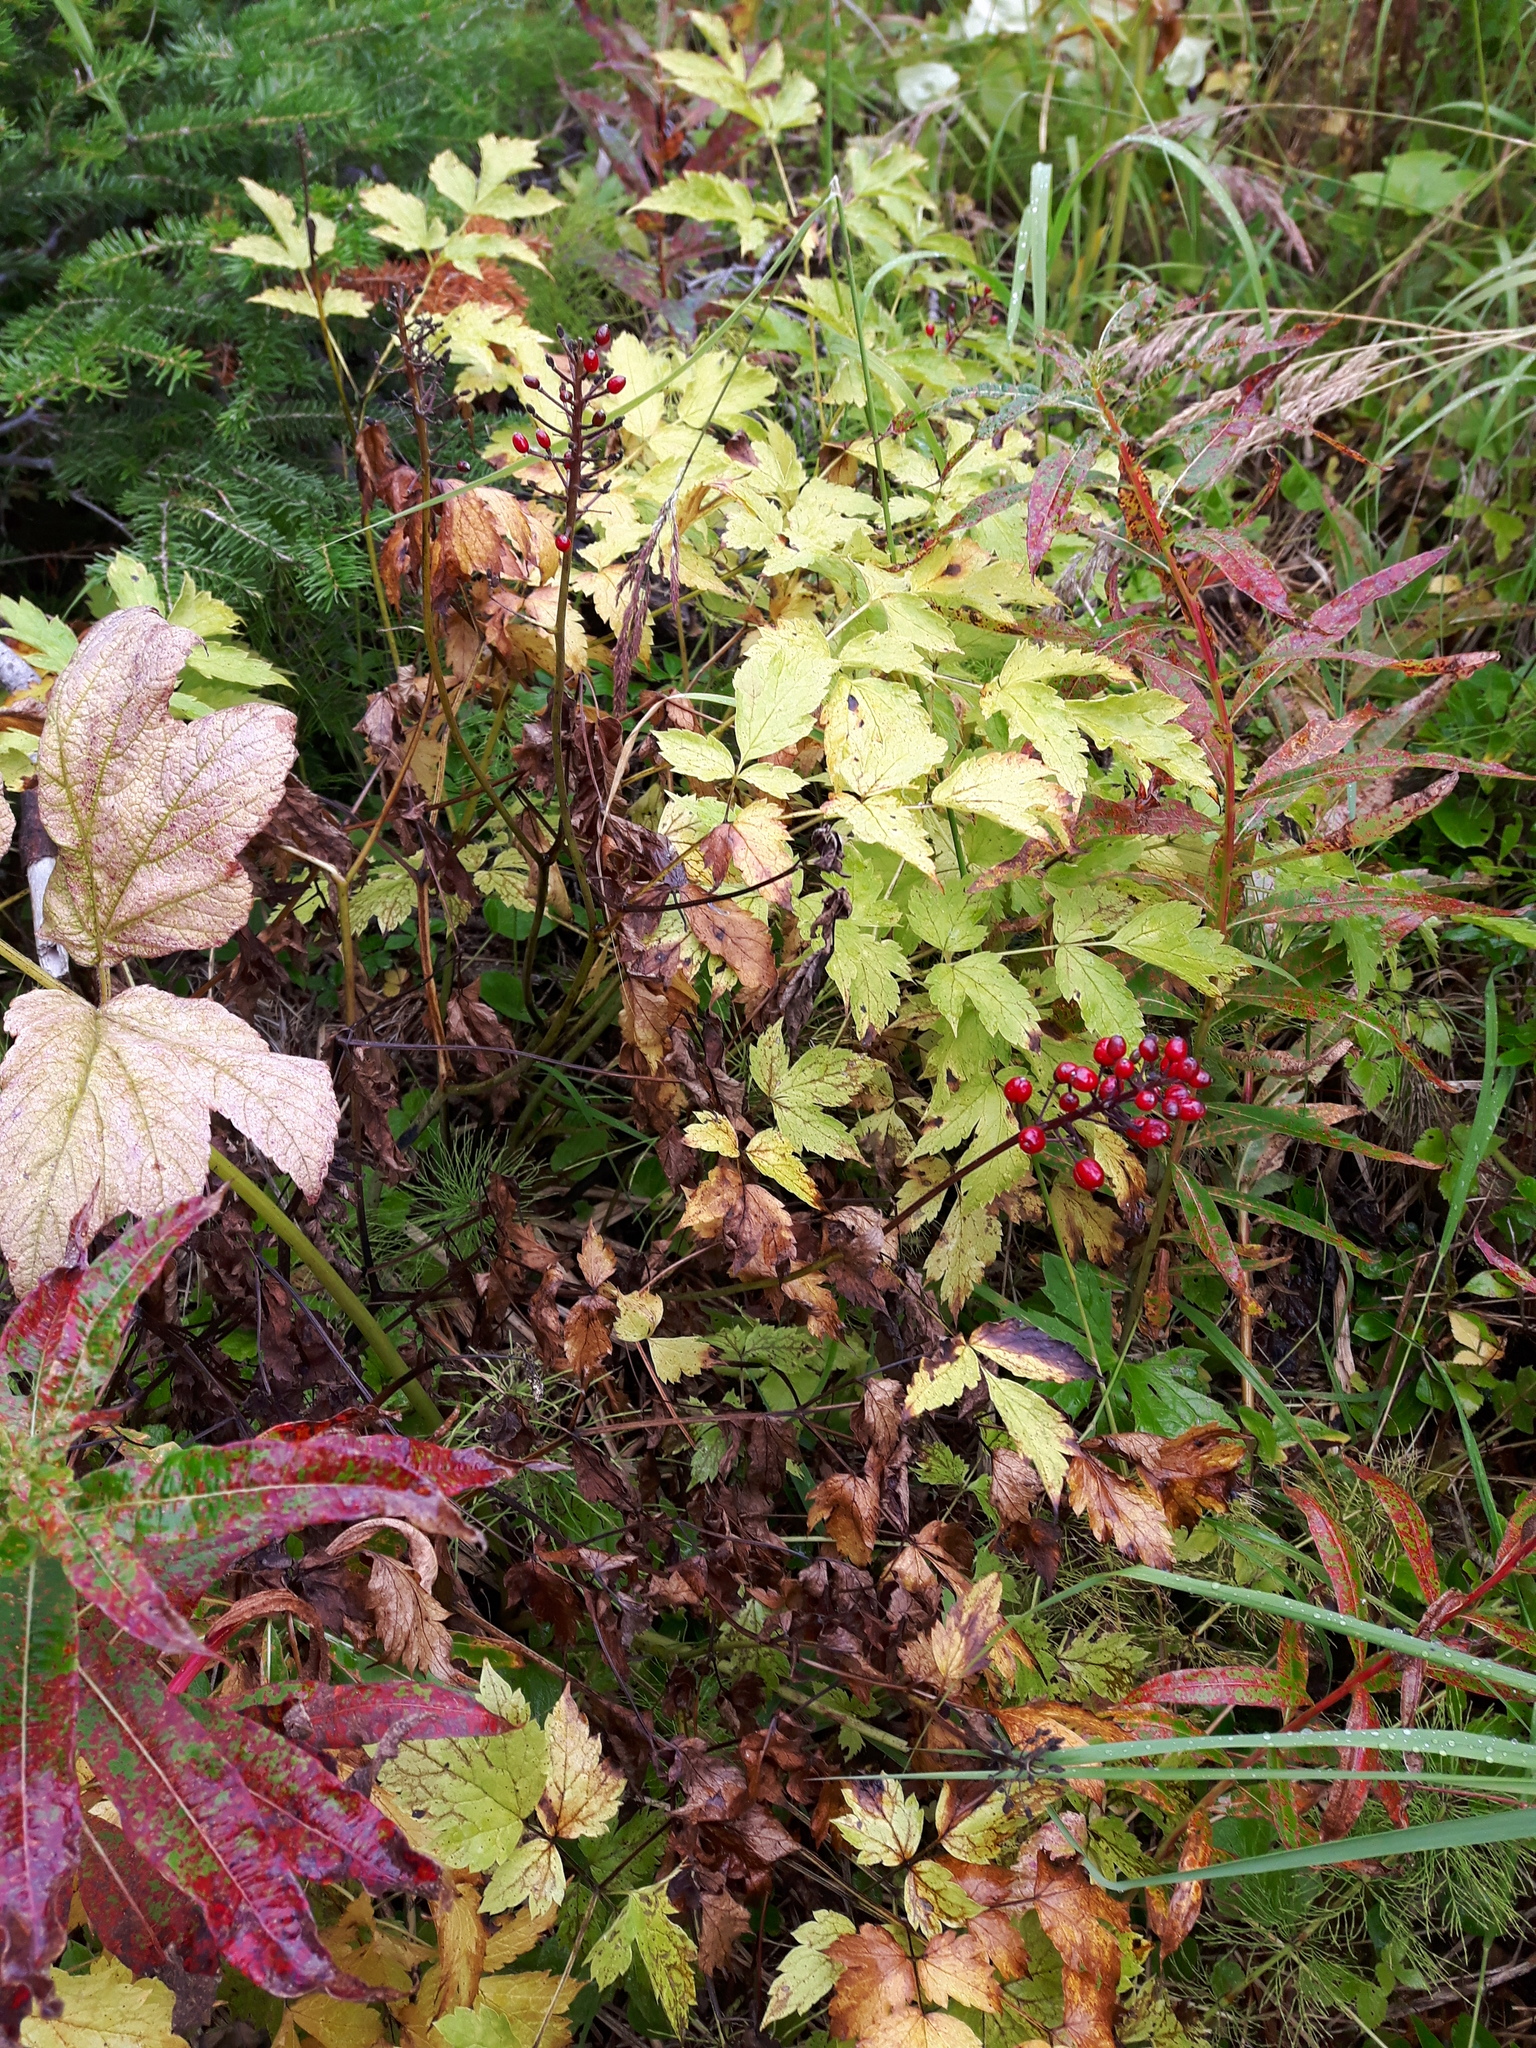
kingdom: Plantae
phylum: Tracheophyta
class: Magnoliopsida
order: Ranunculales
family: Ranunculaceae
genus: Actaea
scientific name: Actaea rubra
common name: Red baneberry
